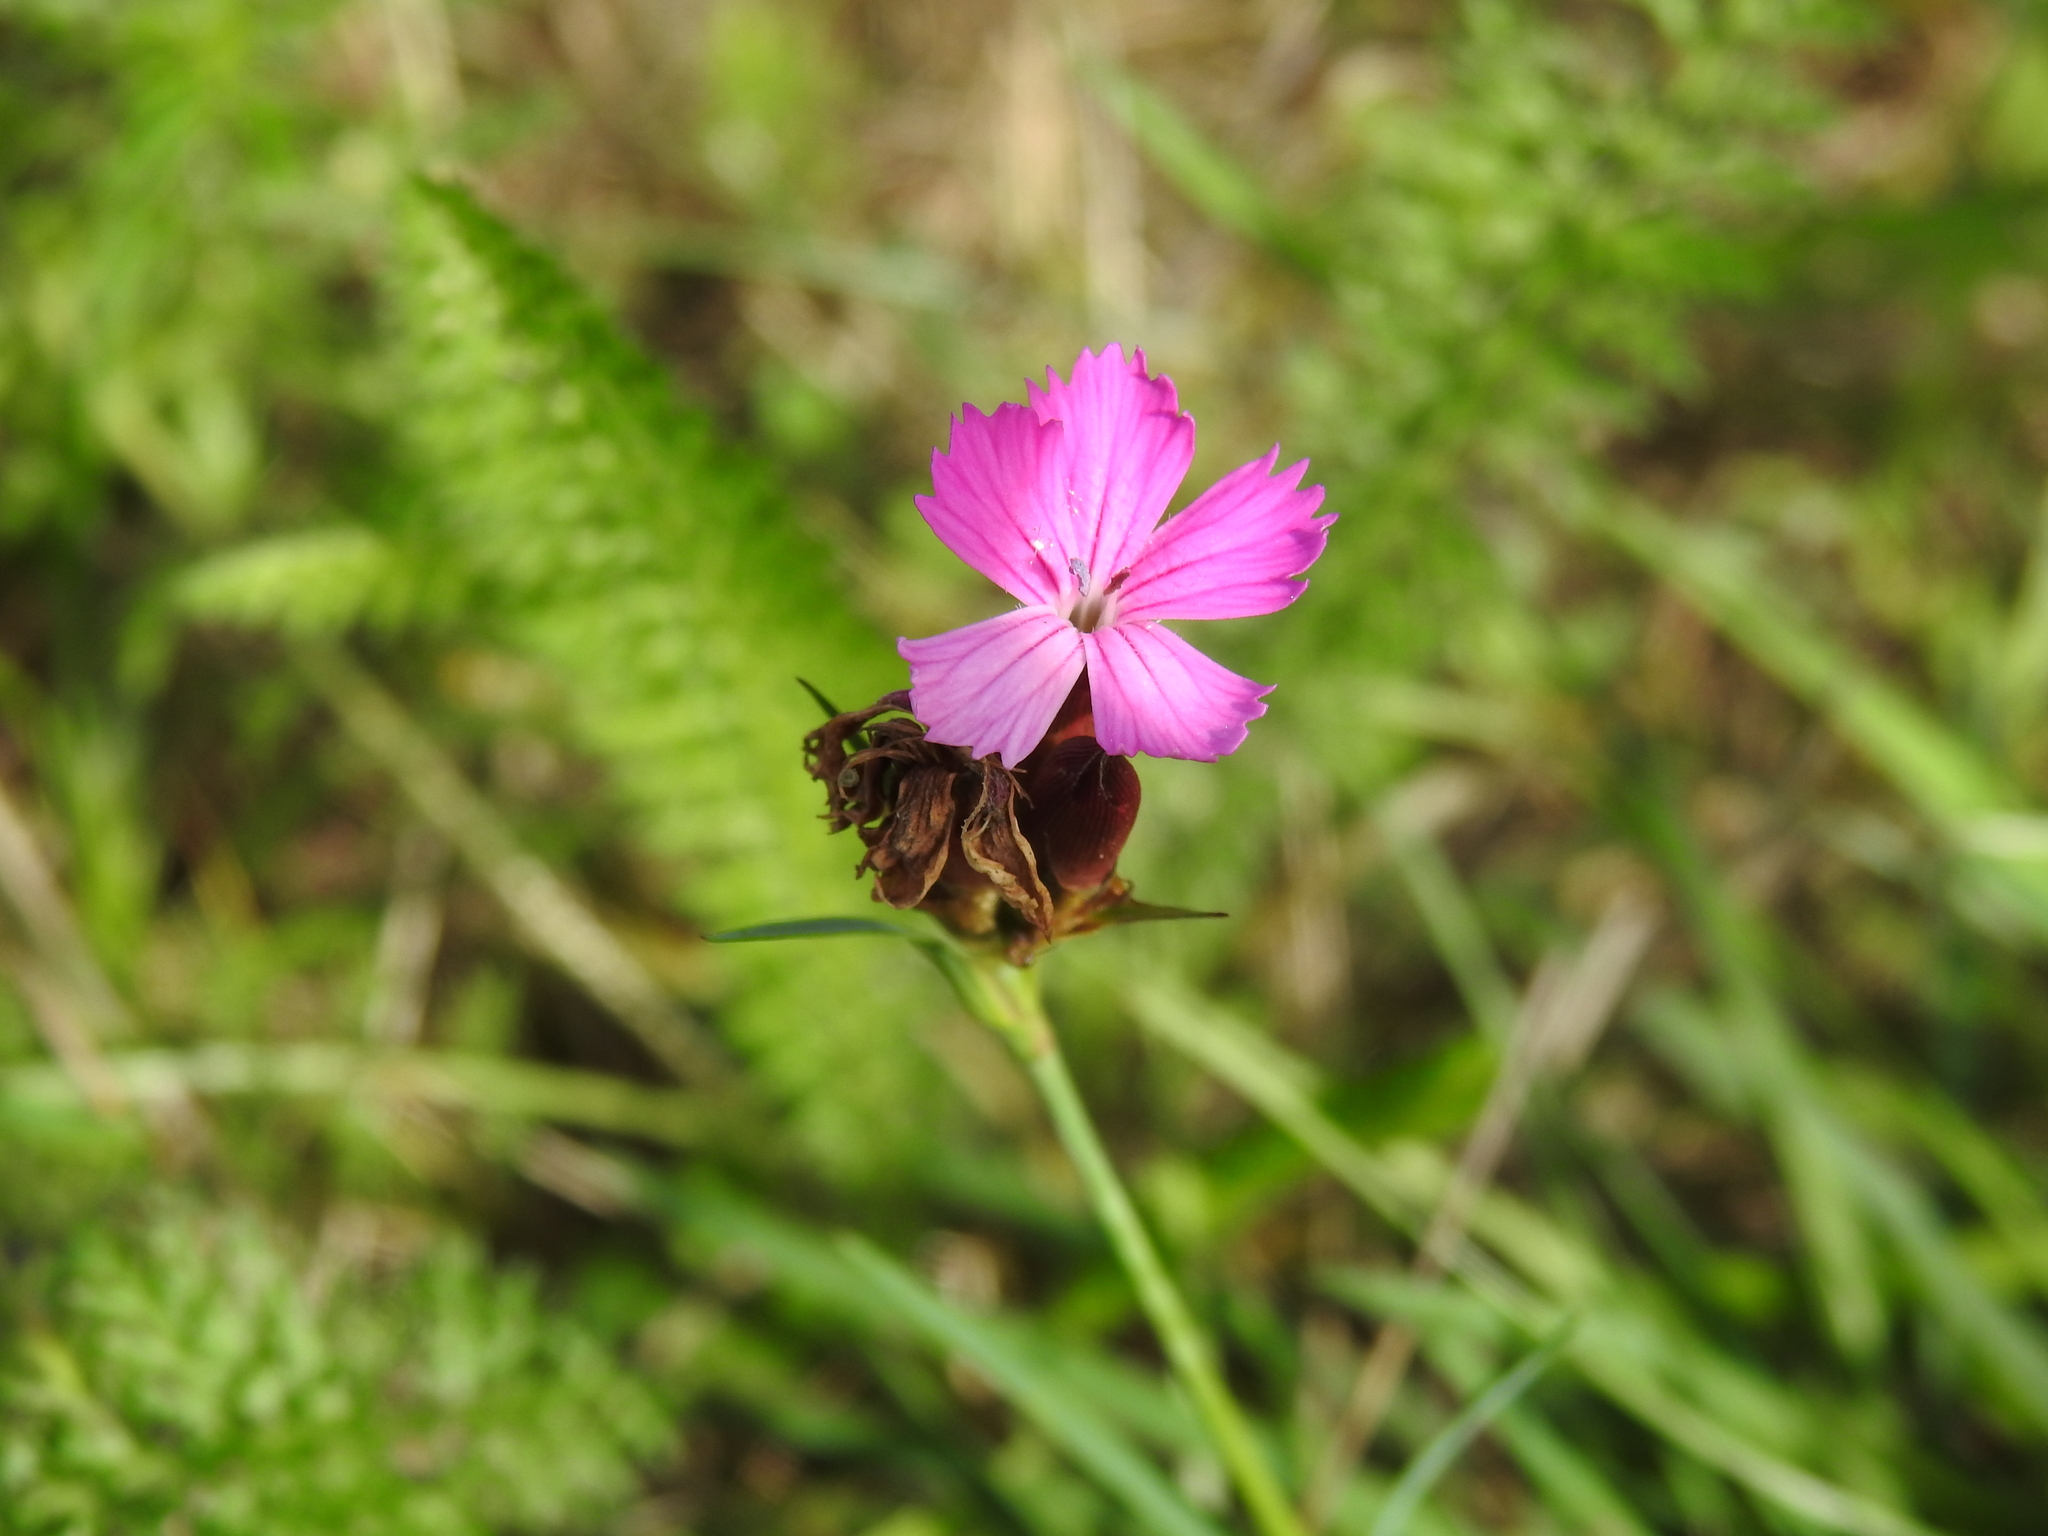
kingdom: Plantae
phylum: Tracheophyta
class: Magnoliopsida
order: Caryophyllales
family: Caryophyllaceae
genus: Dianthus
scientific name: Dianthus carthusianorum
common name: Carthusian pink
